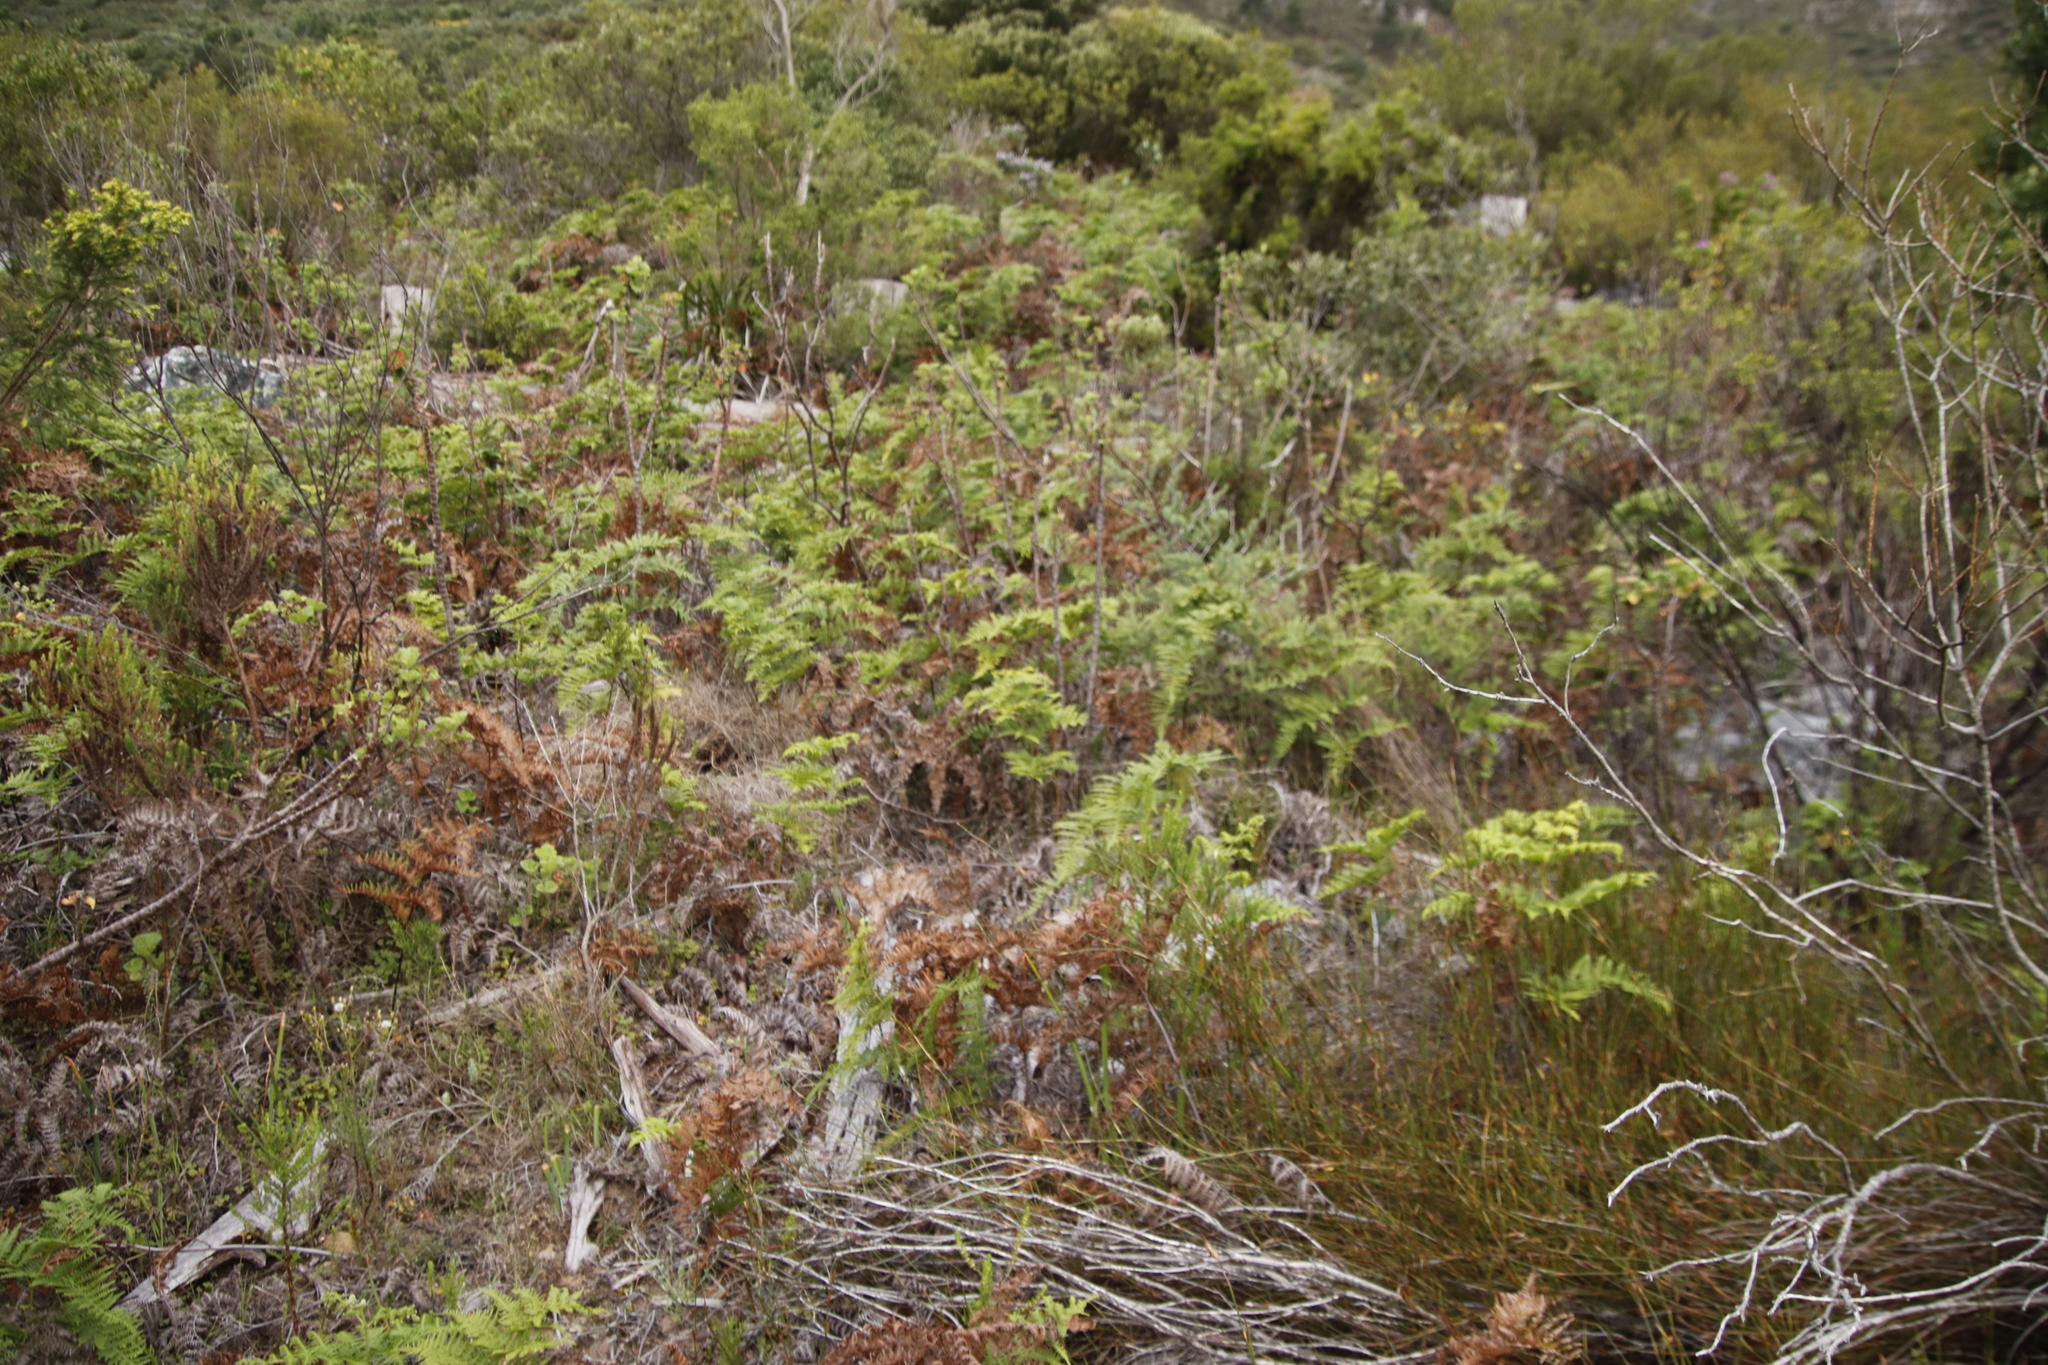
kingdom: Plantae
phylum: Tracheophyta
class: Polypodiopsida
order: Polypodiales
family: Dennstaedtiaceae
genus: Pteridium
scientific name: Pteridium aquilinum
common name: Bracken
